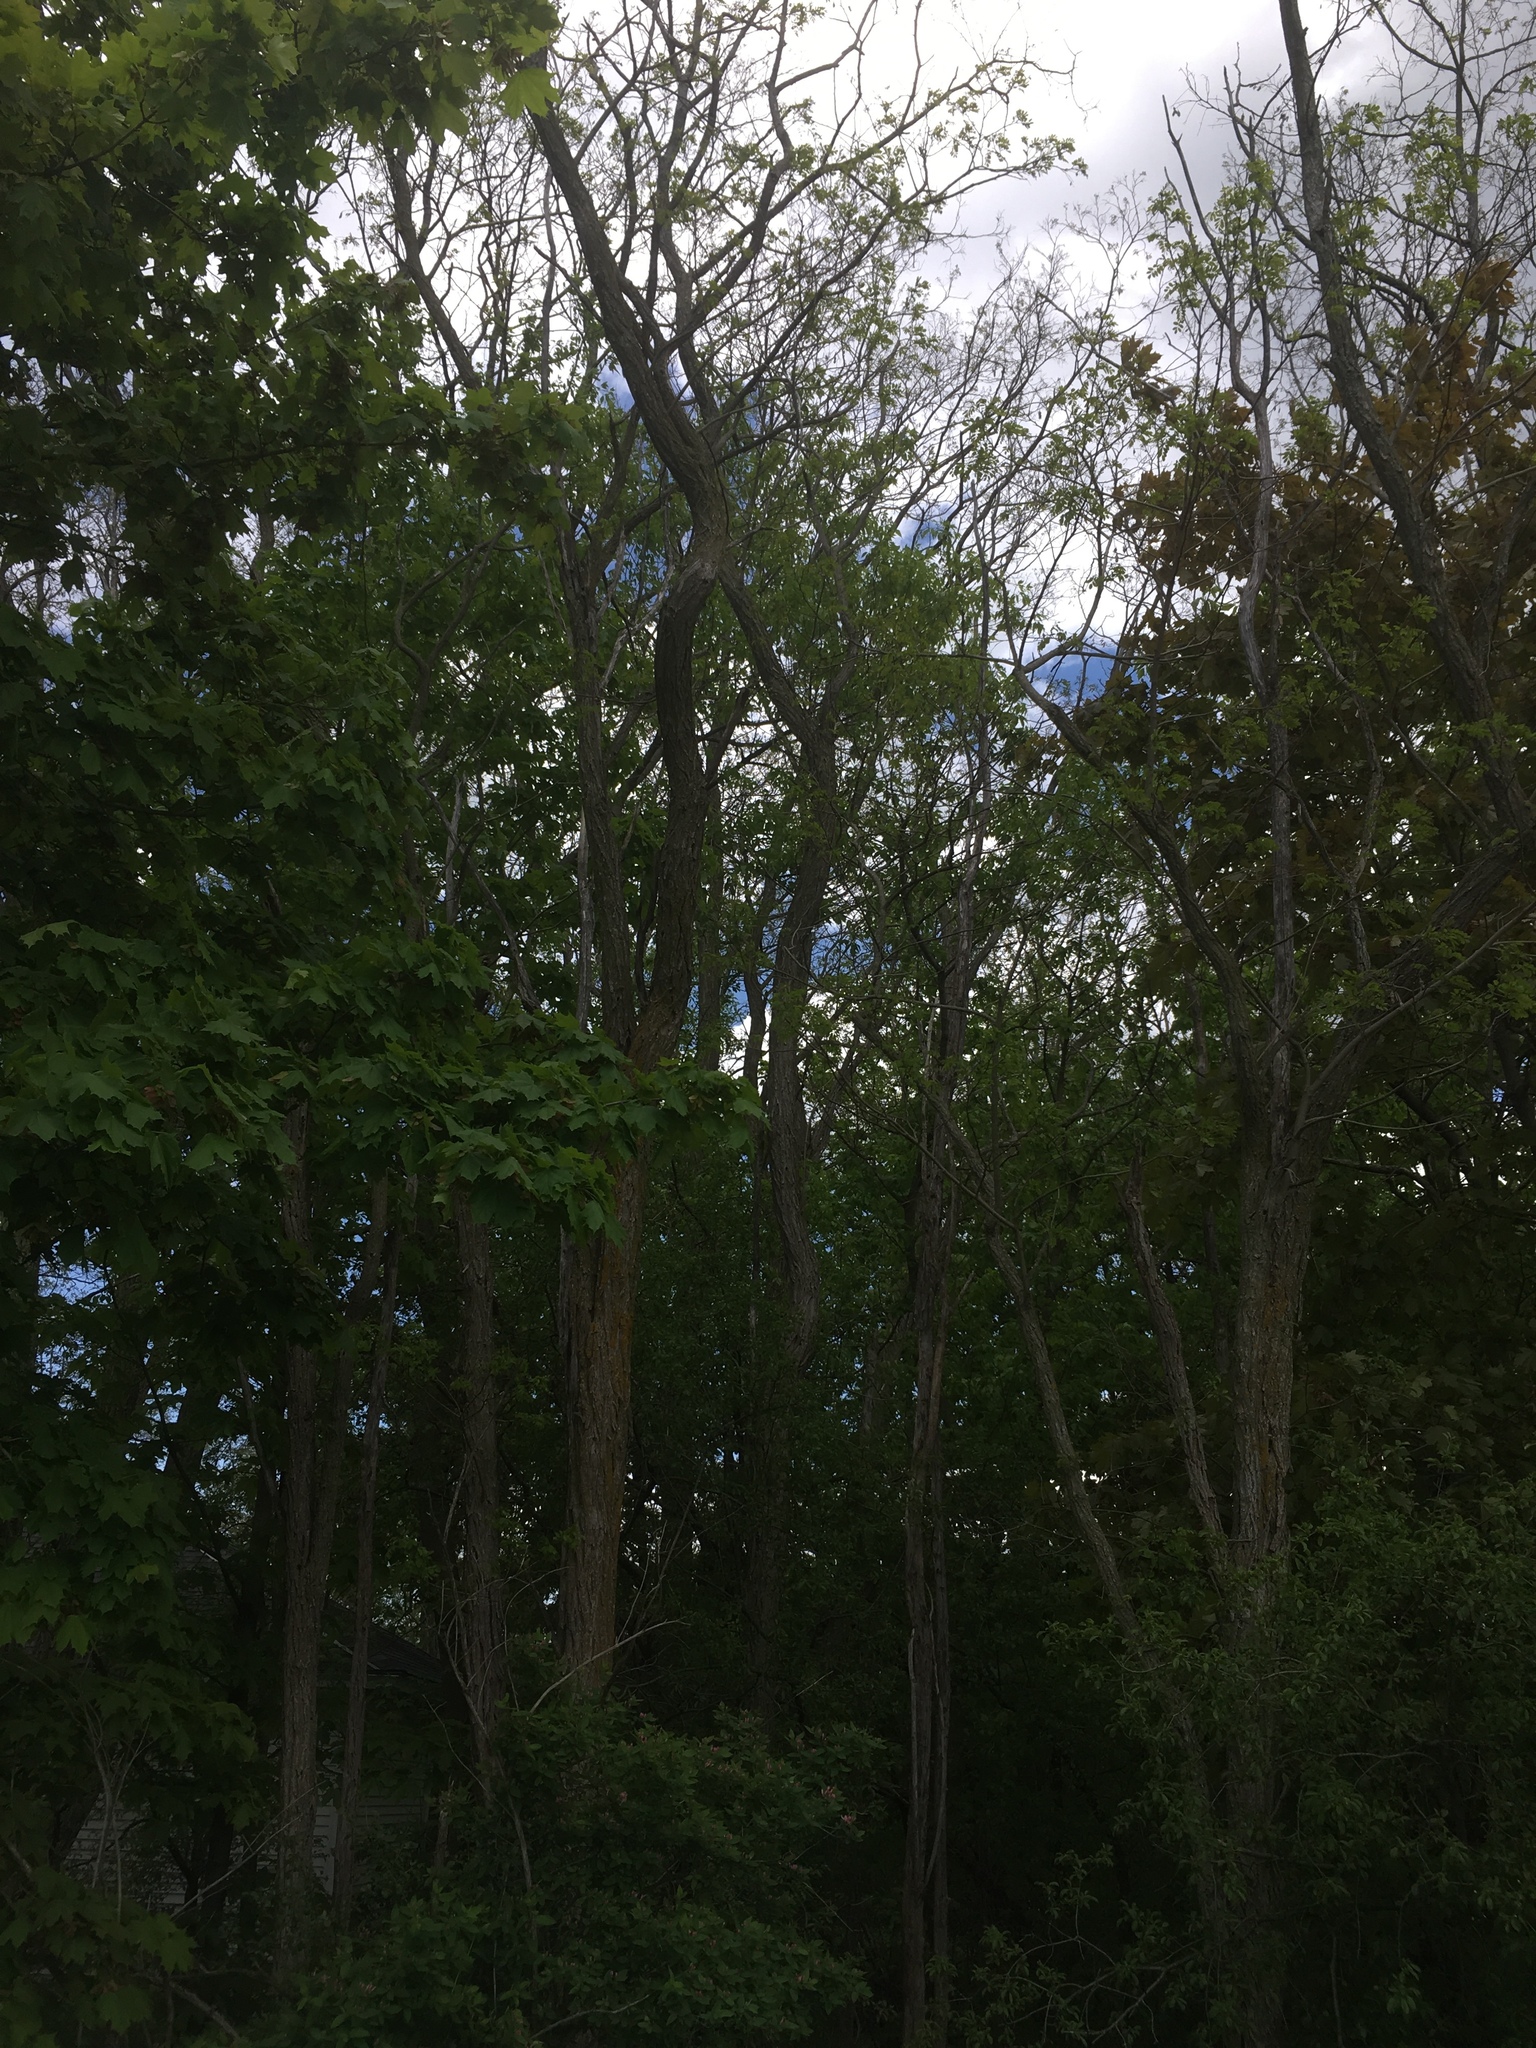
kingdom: Plantae
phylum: Tracheophyta
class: Magnoliopsida
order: Fabales
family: Fabaceae
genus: Robinia
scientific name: Robinia pseudoacacia
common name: Black locust
